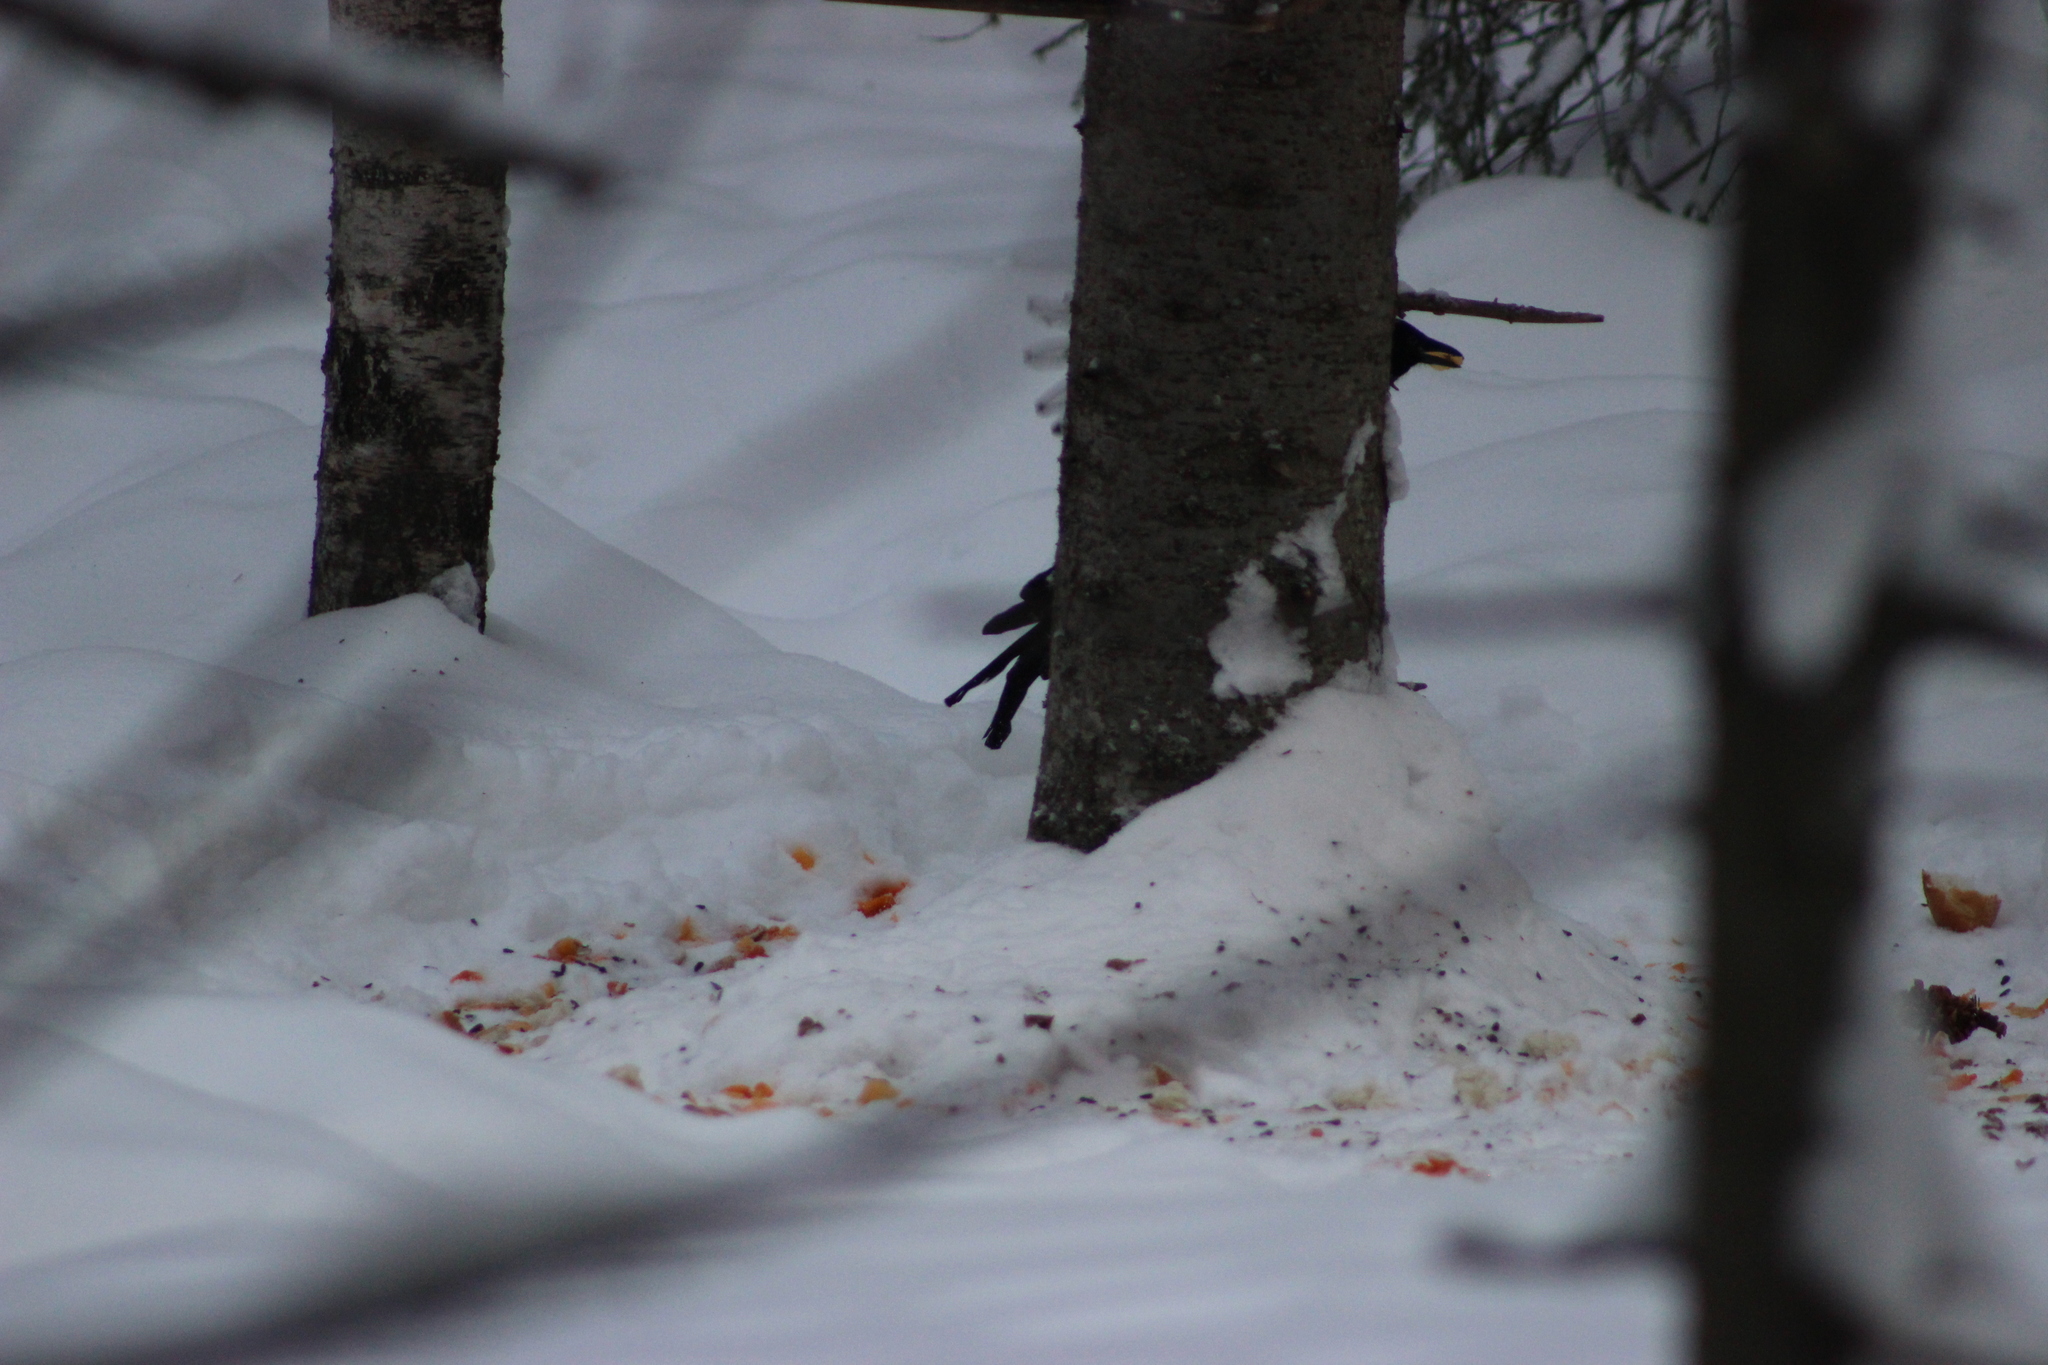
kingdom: Animalia
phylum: Chordata
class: Aves
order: Passeriformes
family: Corvidae
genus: Pica
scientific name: Pica pica
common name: Eurasian magpie
